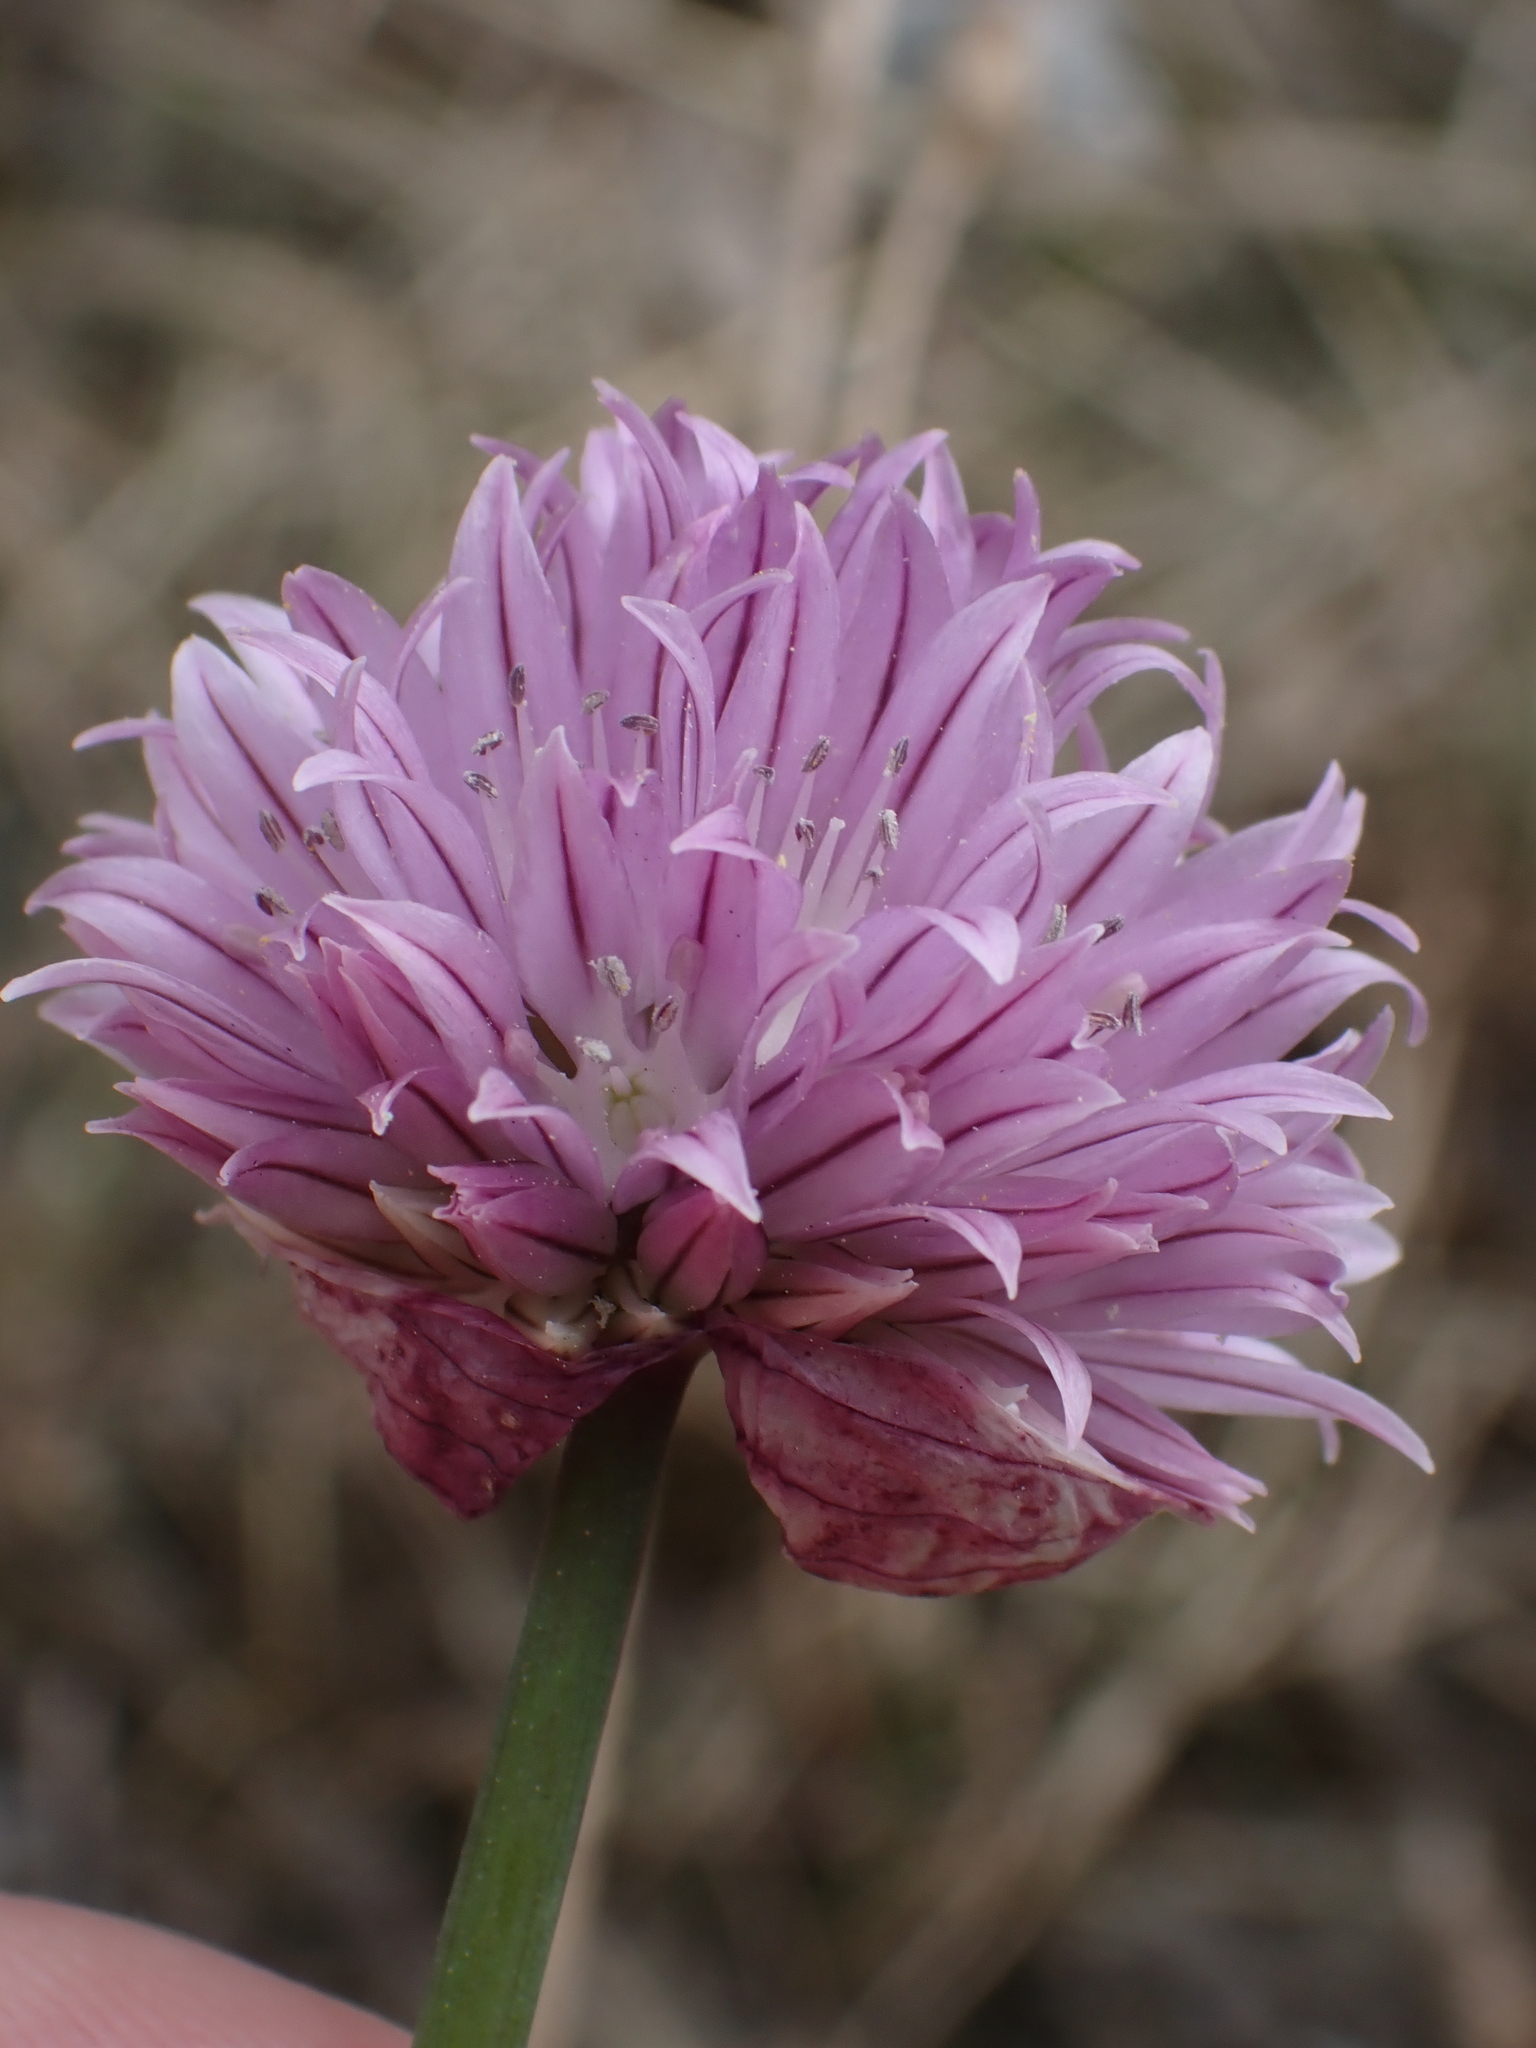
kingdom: Plantae
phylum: Tracheophyta
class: Liliopsida
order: Asparagales
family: Amaryllidaceae
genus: Allium
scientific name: Allium schoenoprasum
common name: Chives
